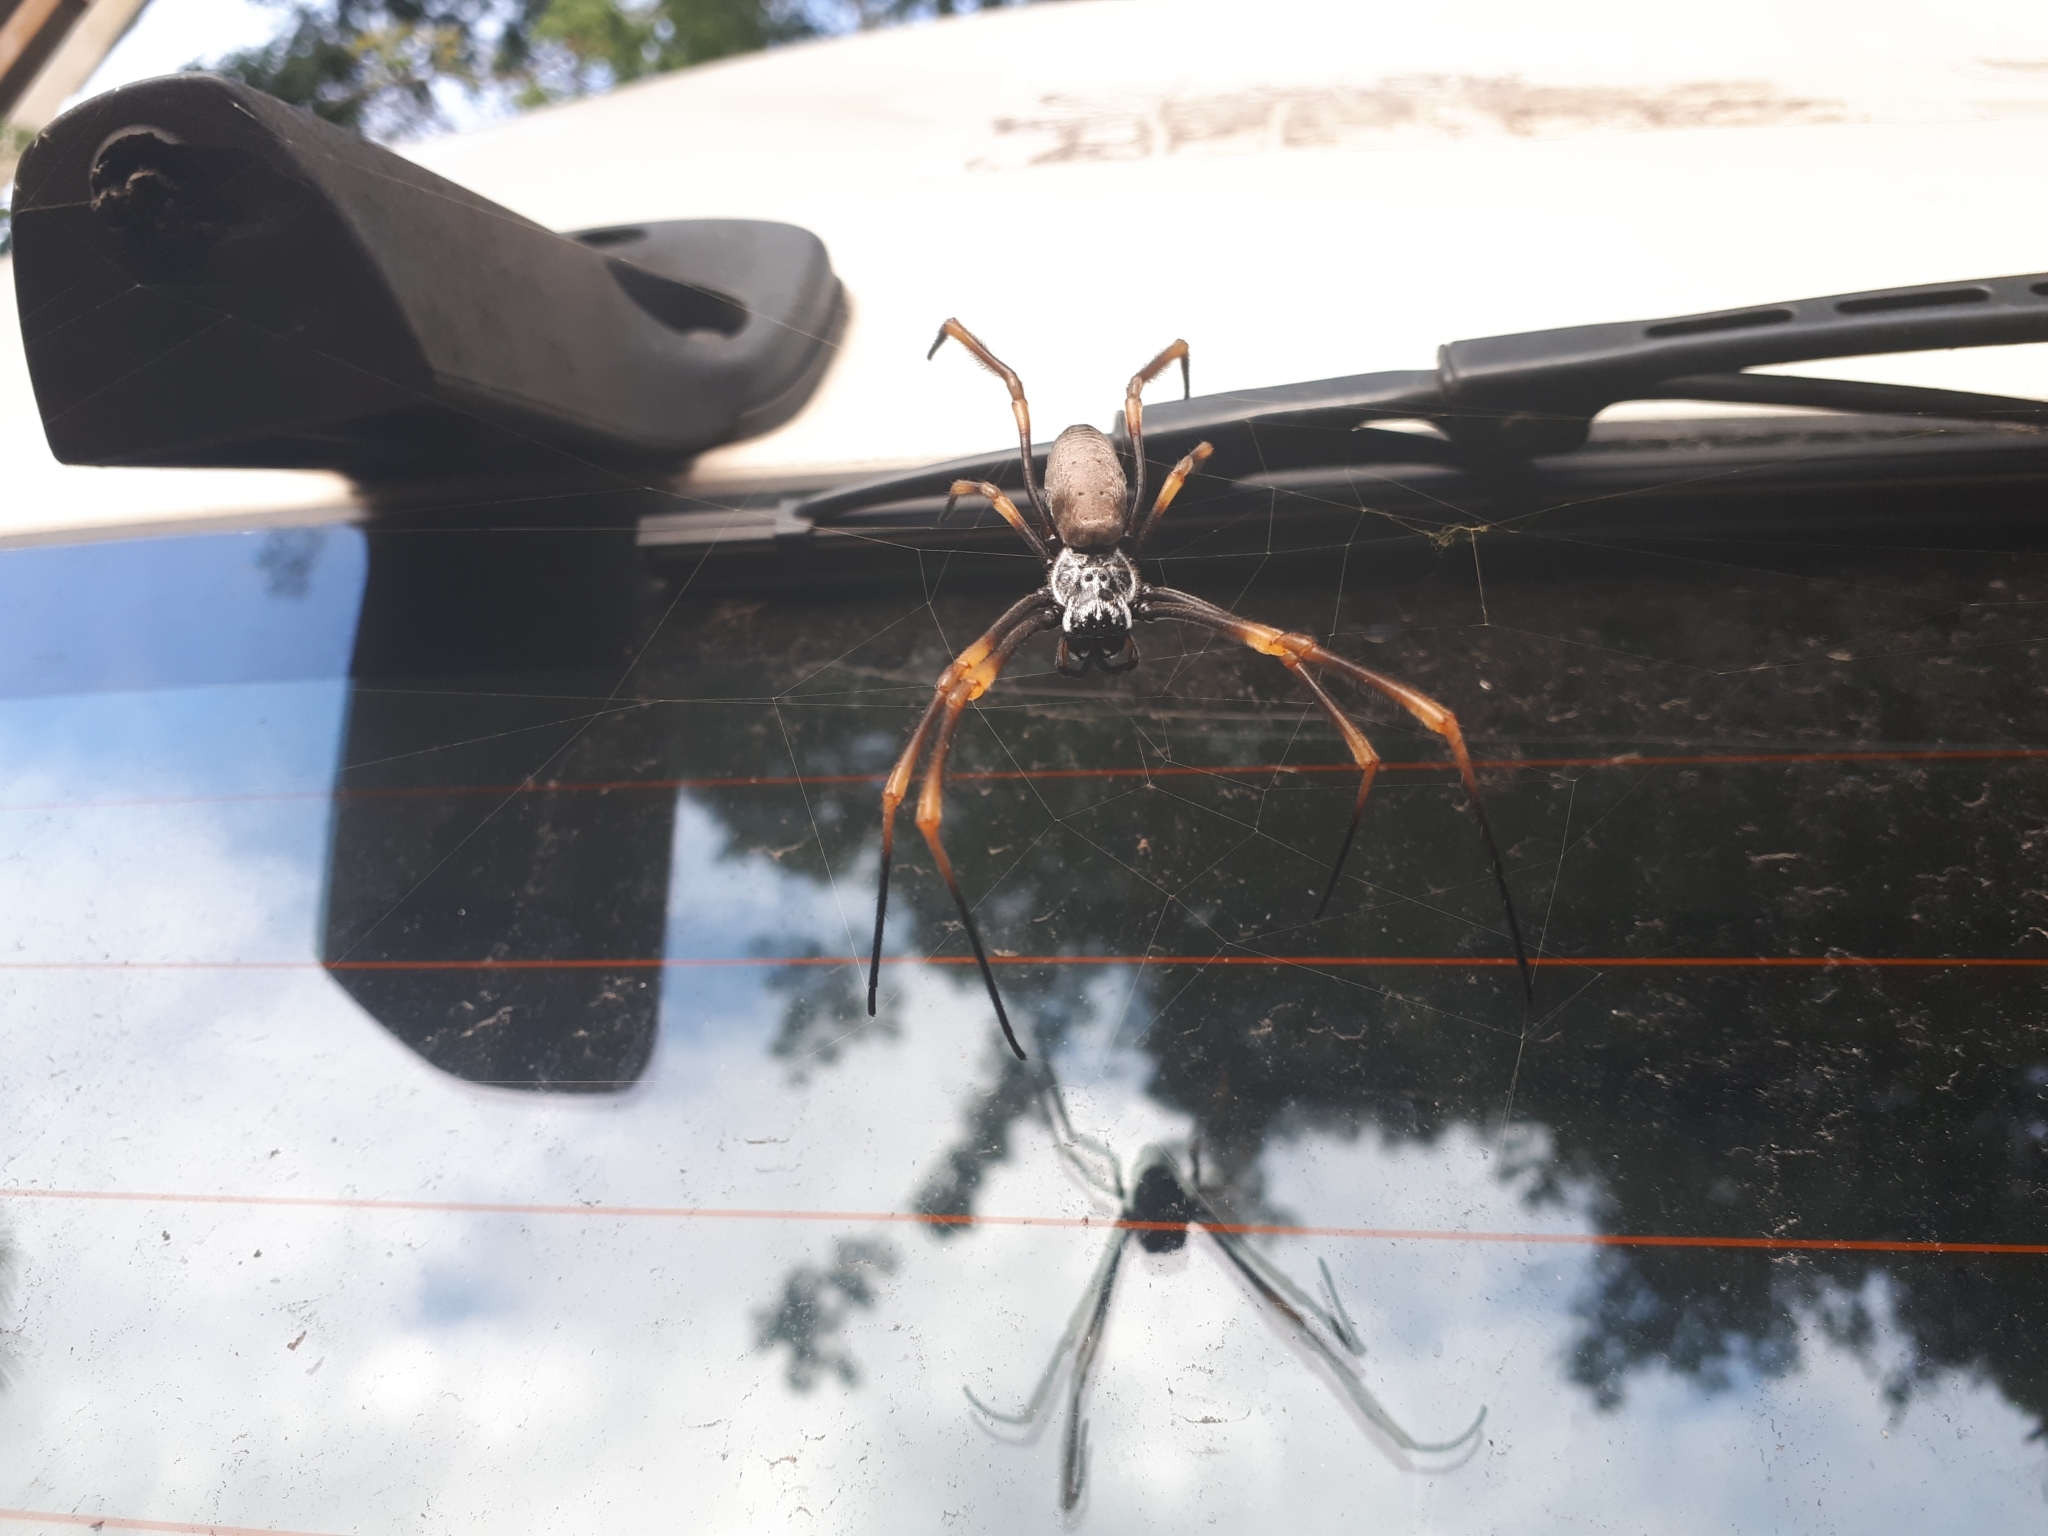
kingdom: Animalia
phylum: Arthropoda
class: Arachnida
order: Araneae
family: Araneidae
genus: Trichonephila
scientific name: Trichonephila plumipes
